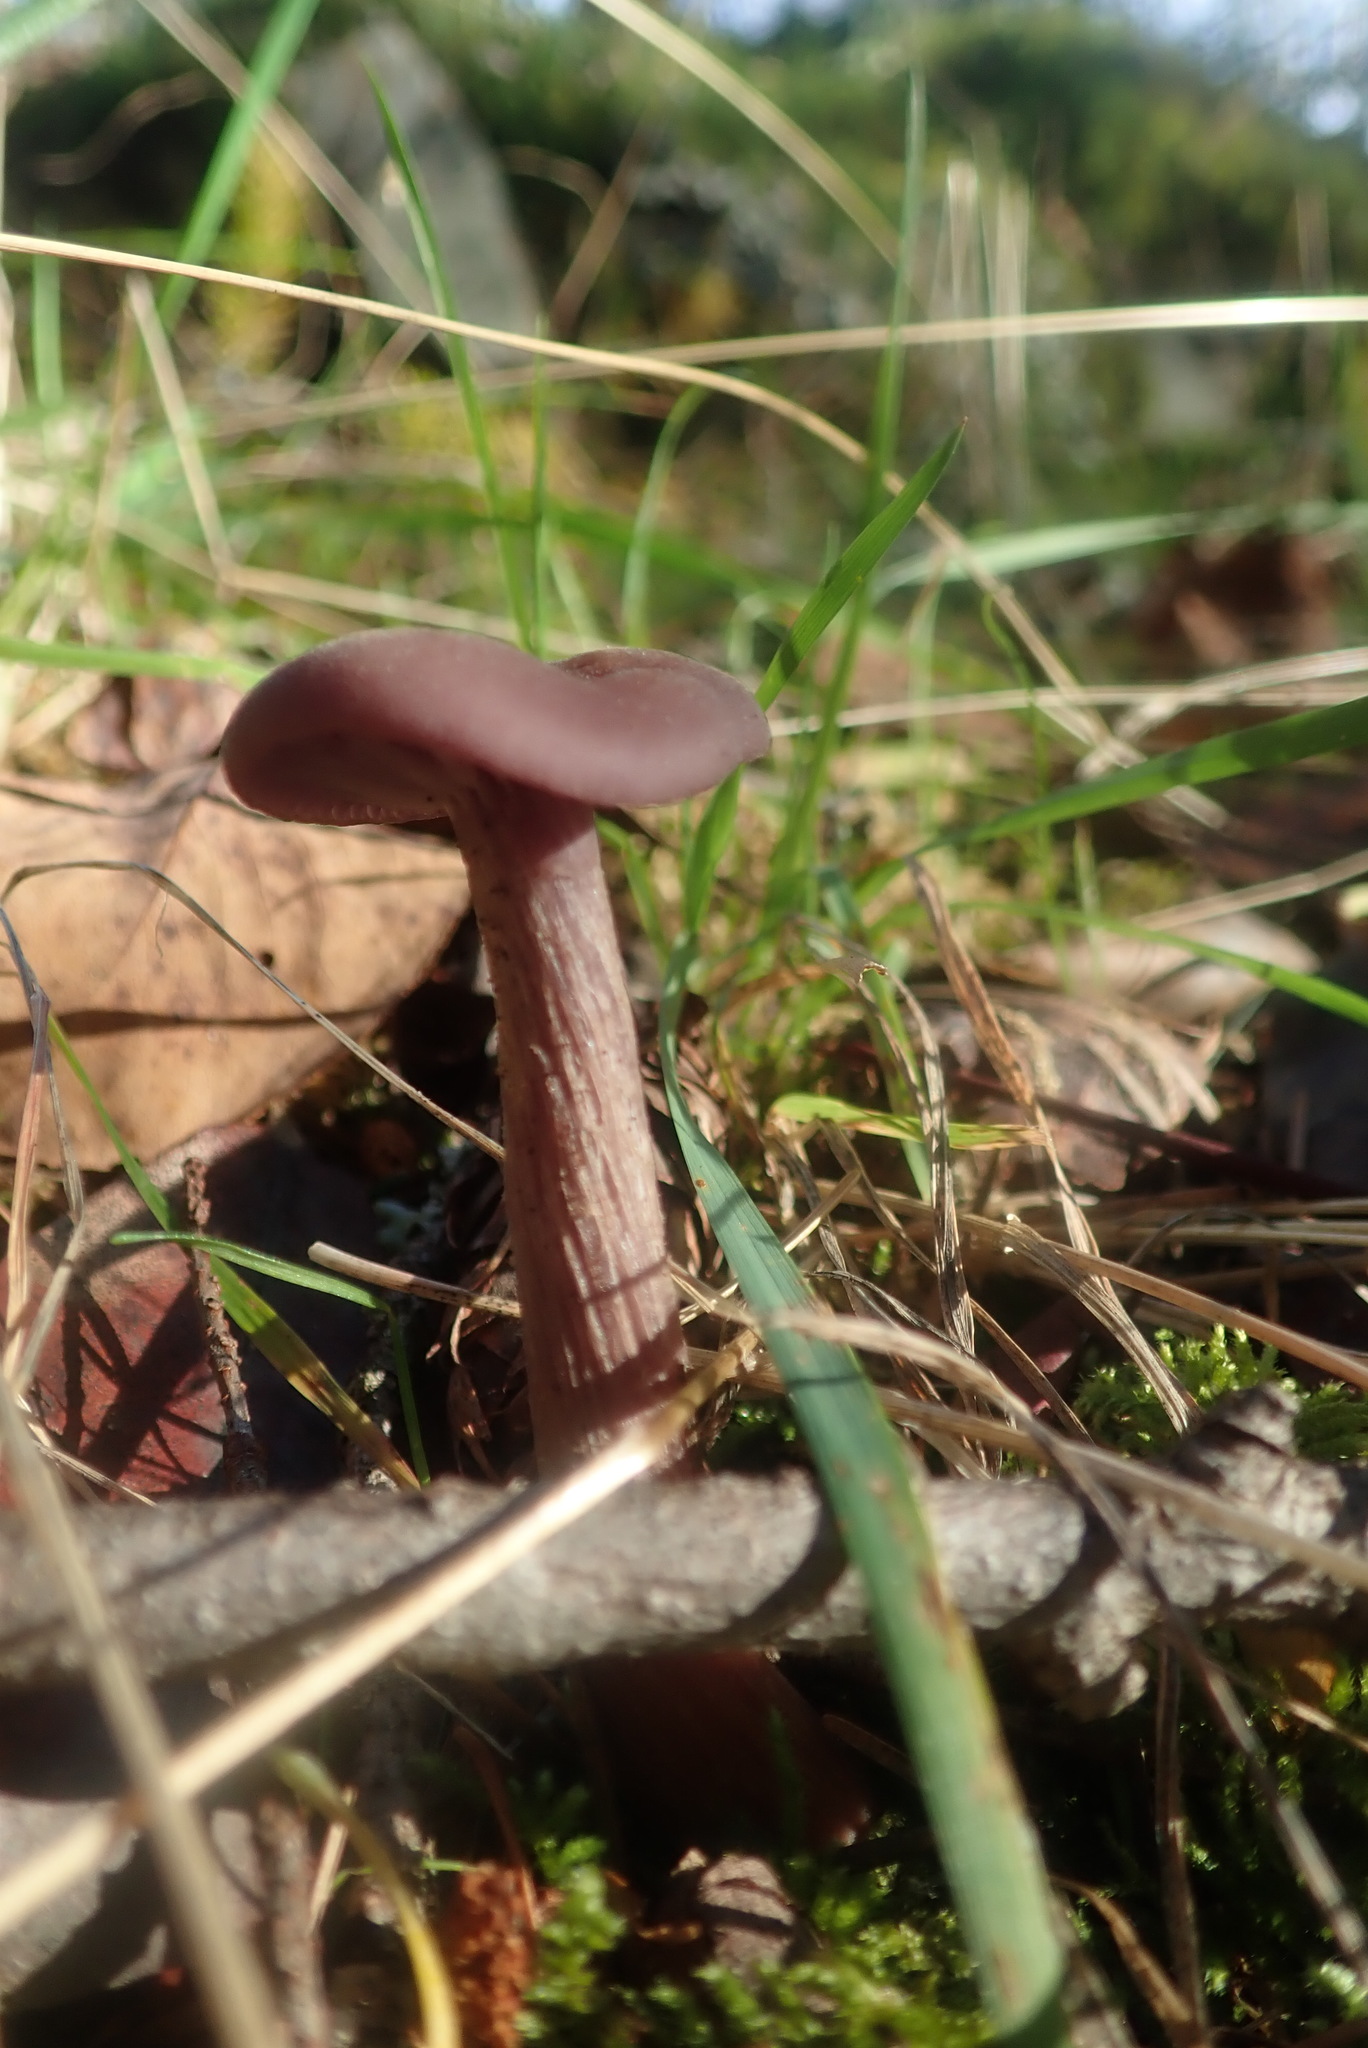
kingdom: Fungi
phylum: Basidiomycota
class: Agaricomycetes
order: Agaricales
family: Hydnangiaceae
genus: Laccaria
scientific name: Laccaria amethysteo-occidentalis
